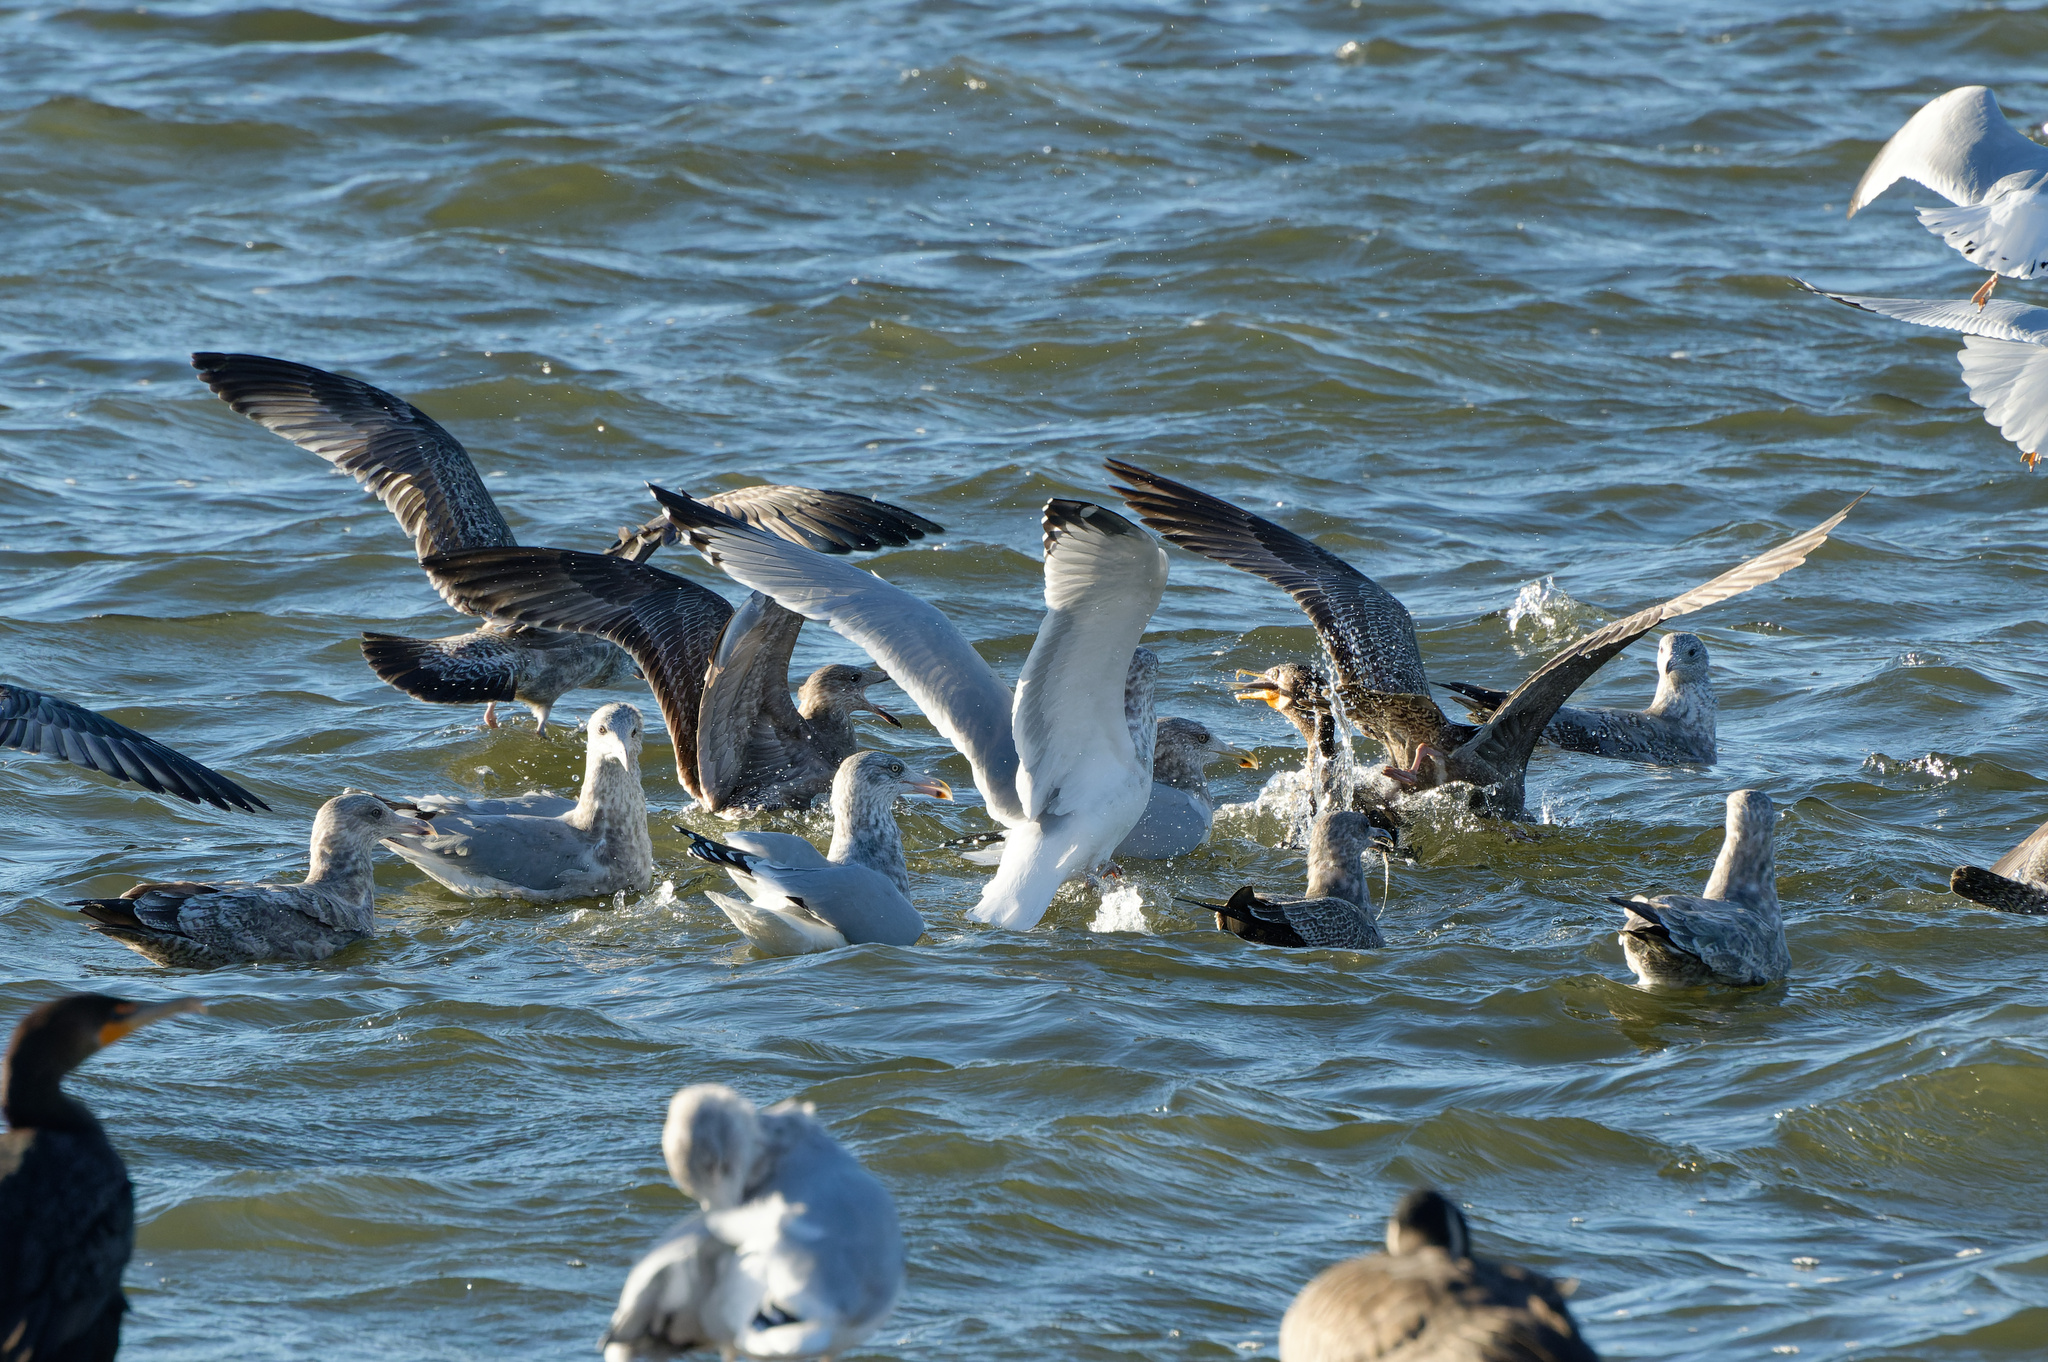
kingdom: Animalia
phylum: Chordata
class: Aves
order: Charadriiformes
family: Laridae
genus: Larus
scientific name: Larus smithsonianus
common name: American herring gull
